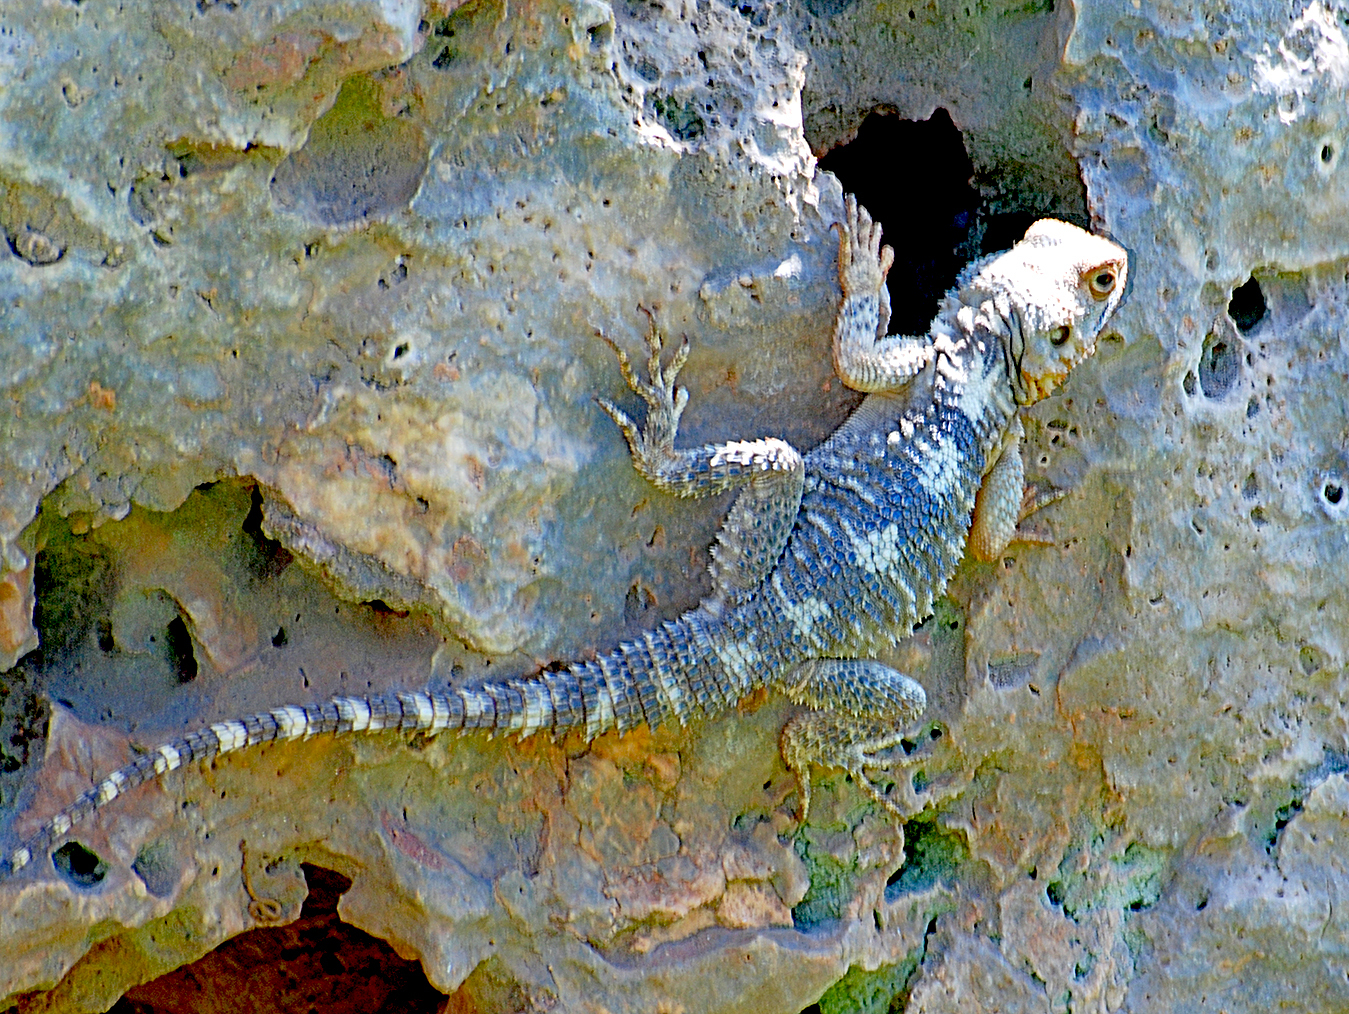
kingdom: Animalia
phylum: Chordata
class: Squamata
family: Agamidae
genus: Stellagama
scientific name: Stellagama stellio
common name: Starred agama
